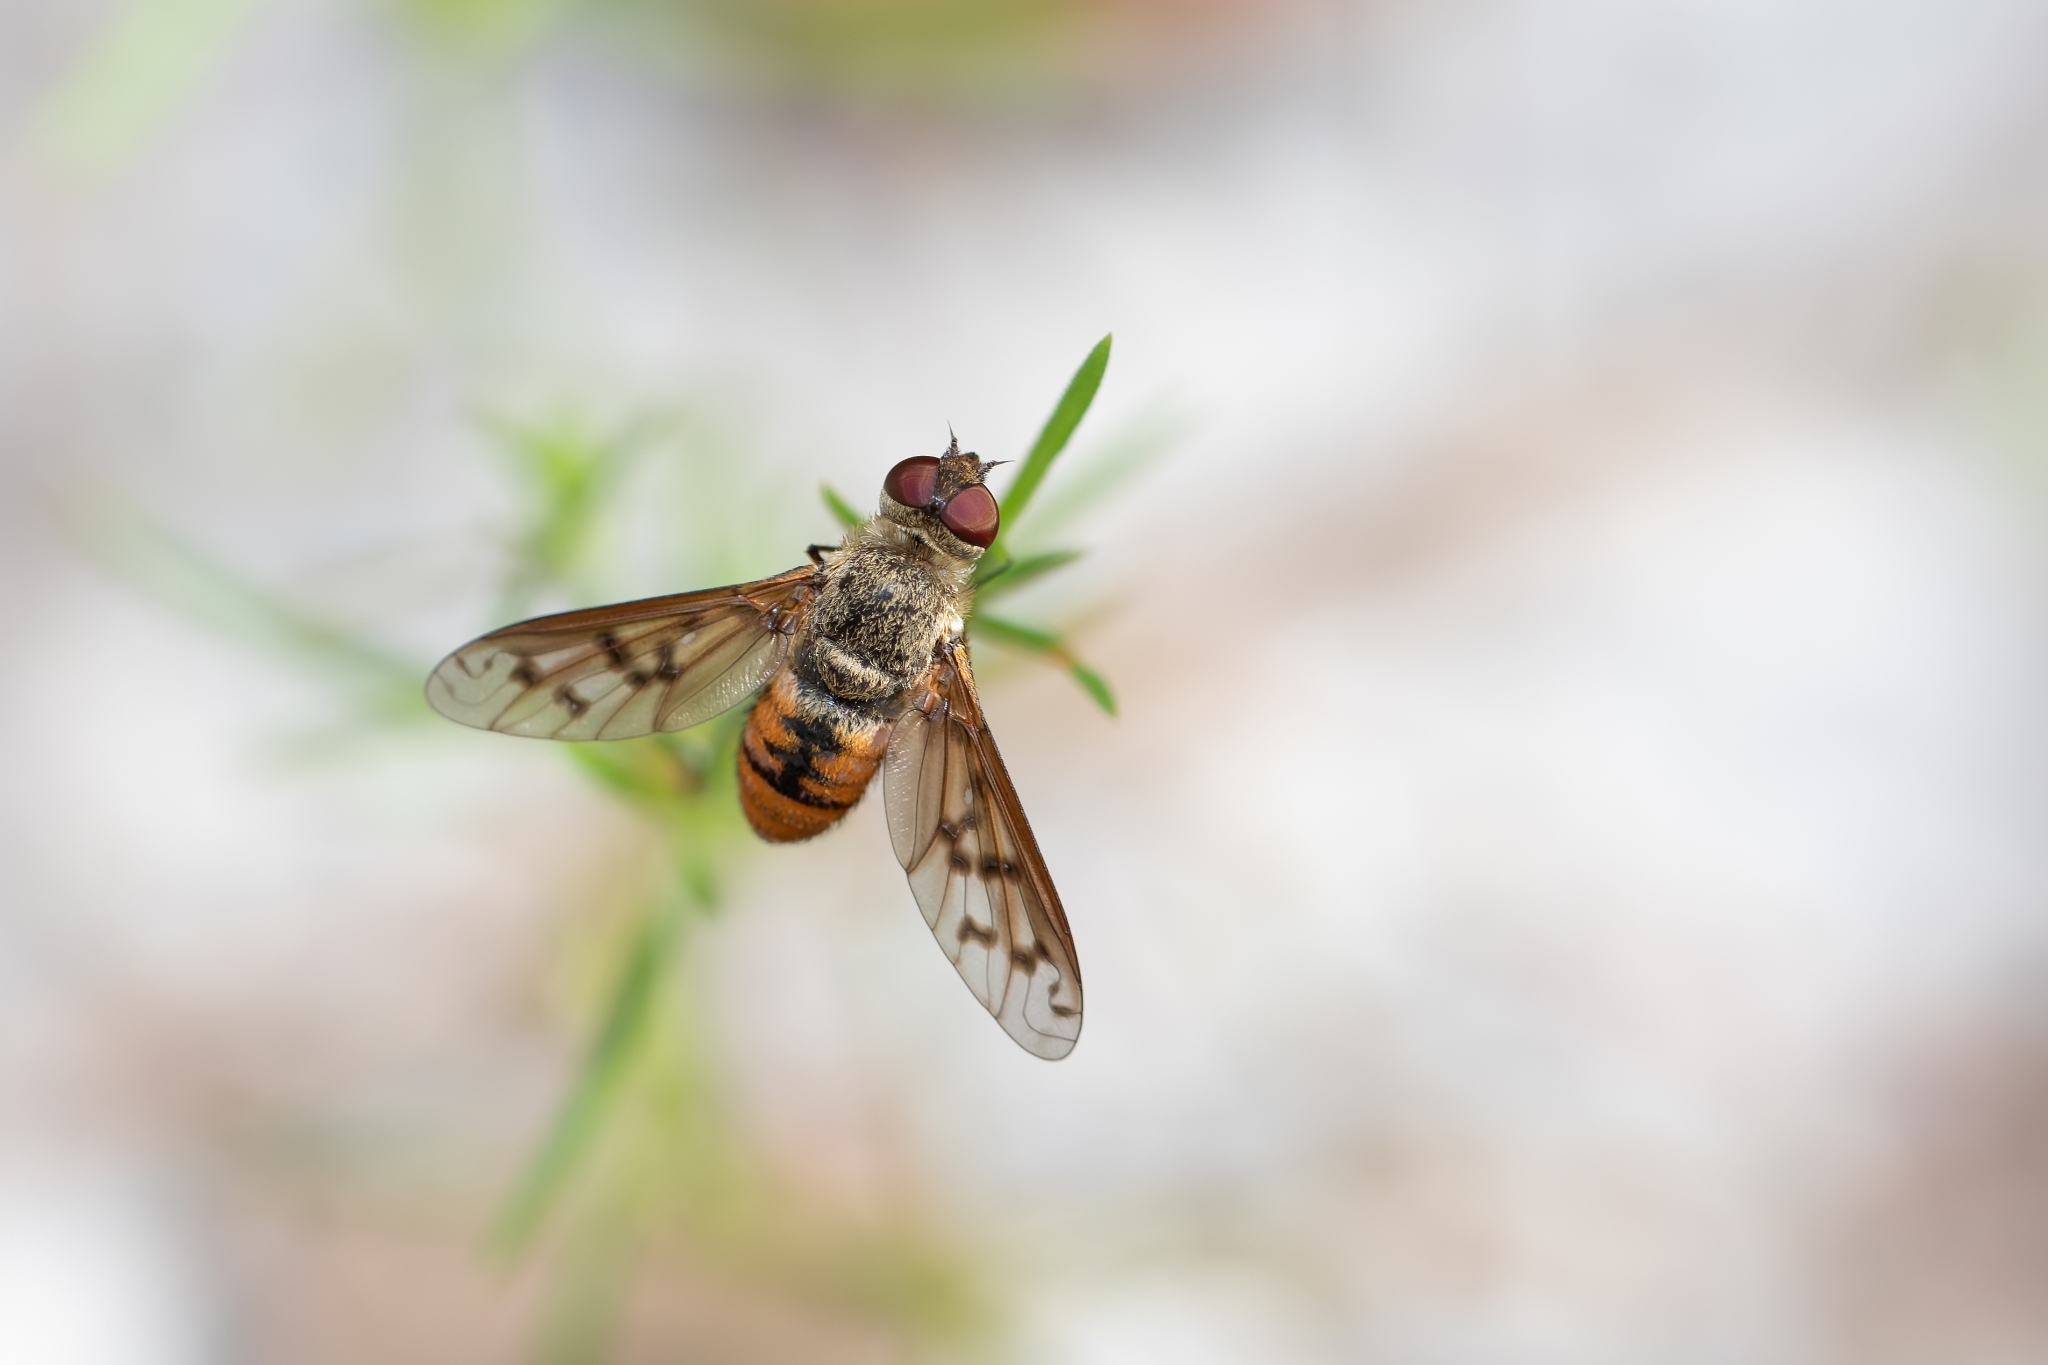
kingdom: Animalia
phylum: Arthropoda
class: Insecta
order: Diptera
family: Bombyliidae
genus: Neodiplocampta
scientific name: Neodiplocampta miranda
